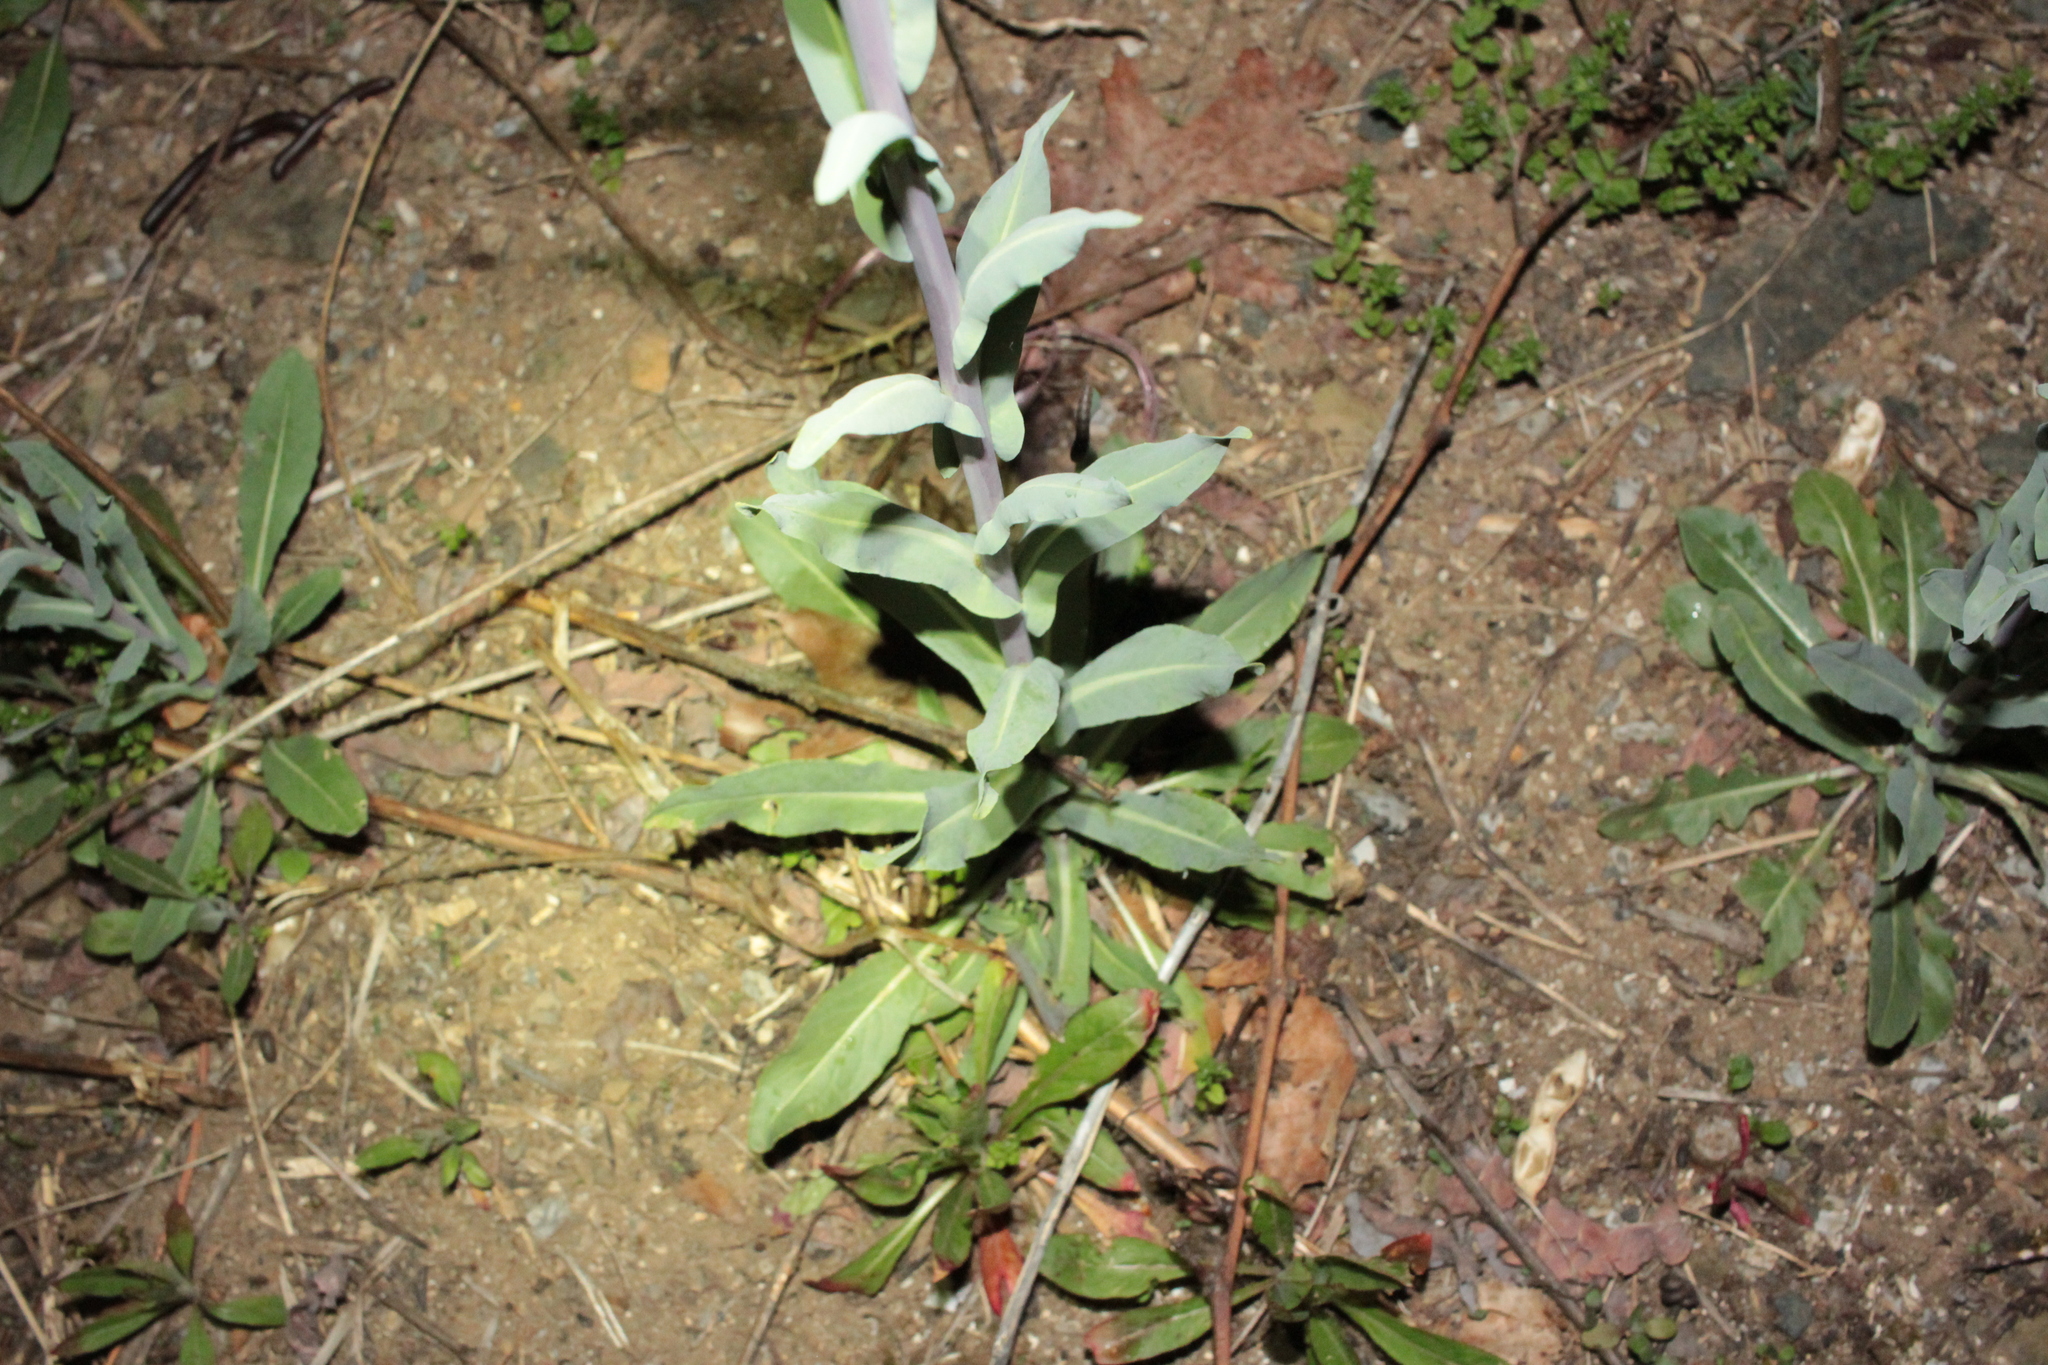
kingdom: Plantae
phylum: Tracheophyta
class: Magnoliopsida
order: Brassicales
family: Brassicaceae
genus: Isatis
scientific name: Isatis tinctoria
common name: Woad
